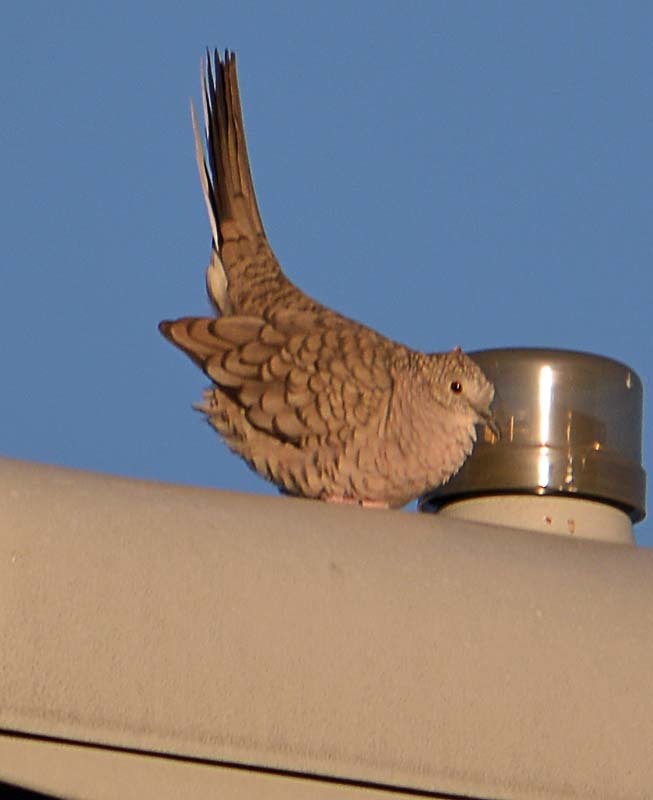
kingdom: Animalia
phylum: Chordata
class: Aves
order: Columbiformes
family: Columbidae
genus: Columbina
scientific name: Columbina inca
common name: Inca dove
